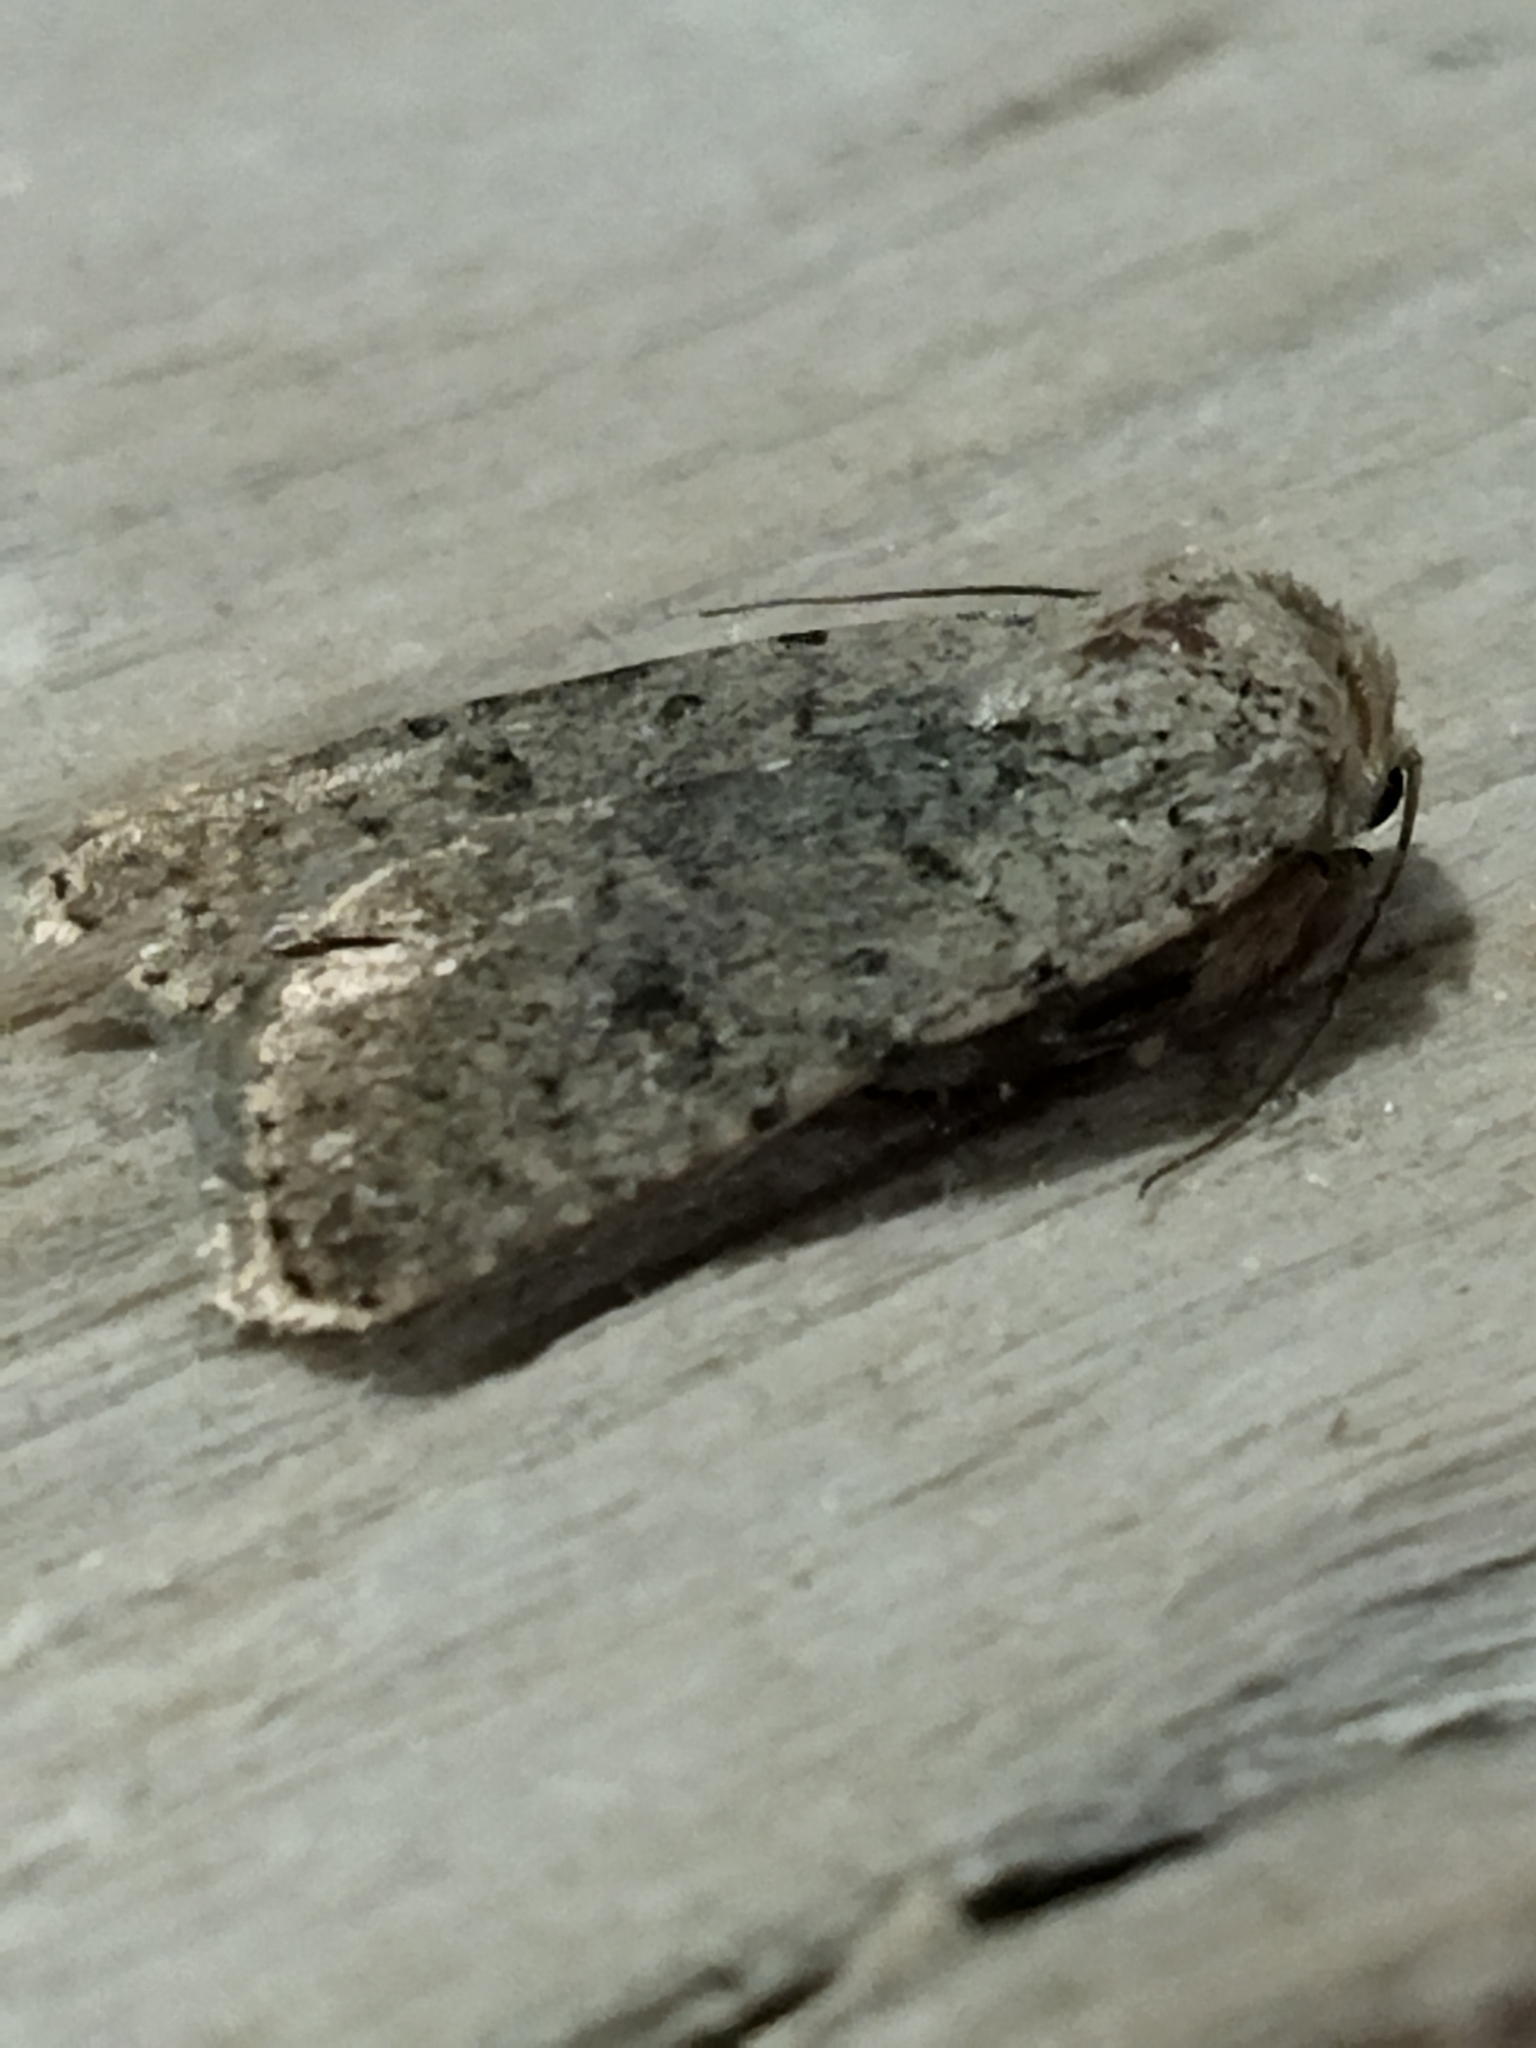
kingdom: Animalia
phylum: Arthropoda
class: Insecta
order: Lepidoptera
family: Noctuidae
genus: Caradrina
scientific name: Caradrina clavipalpis
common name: Pale mottled willow
